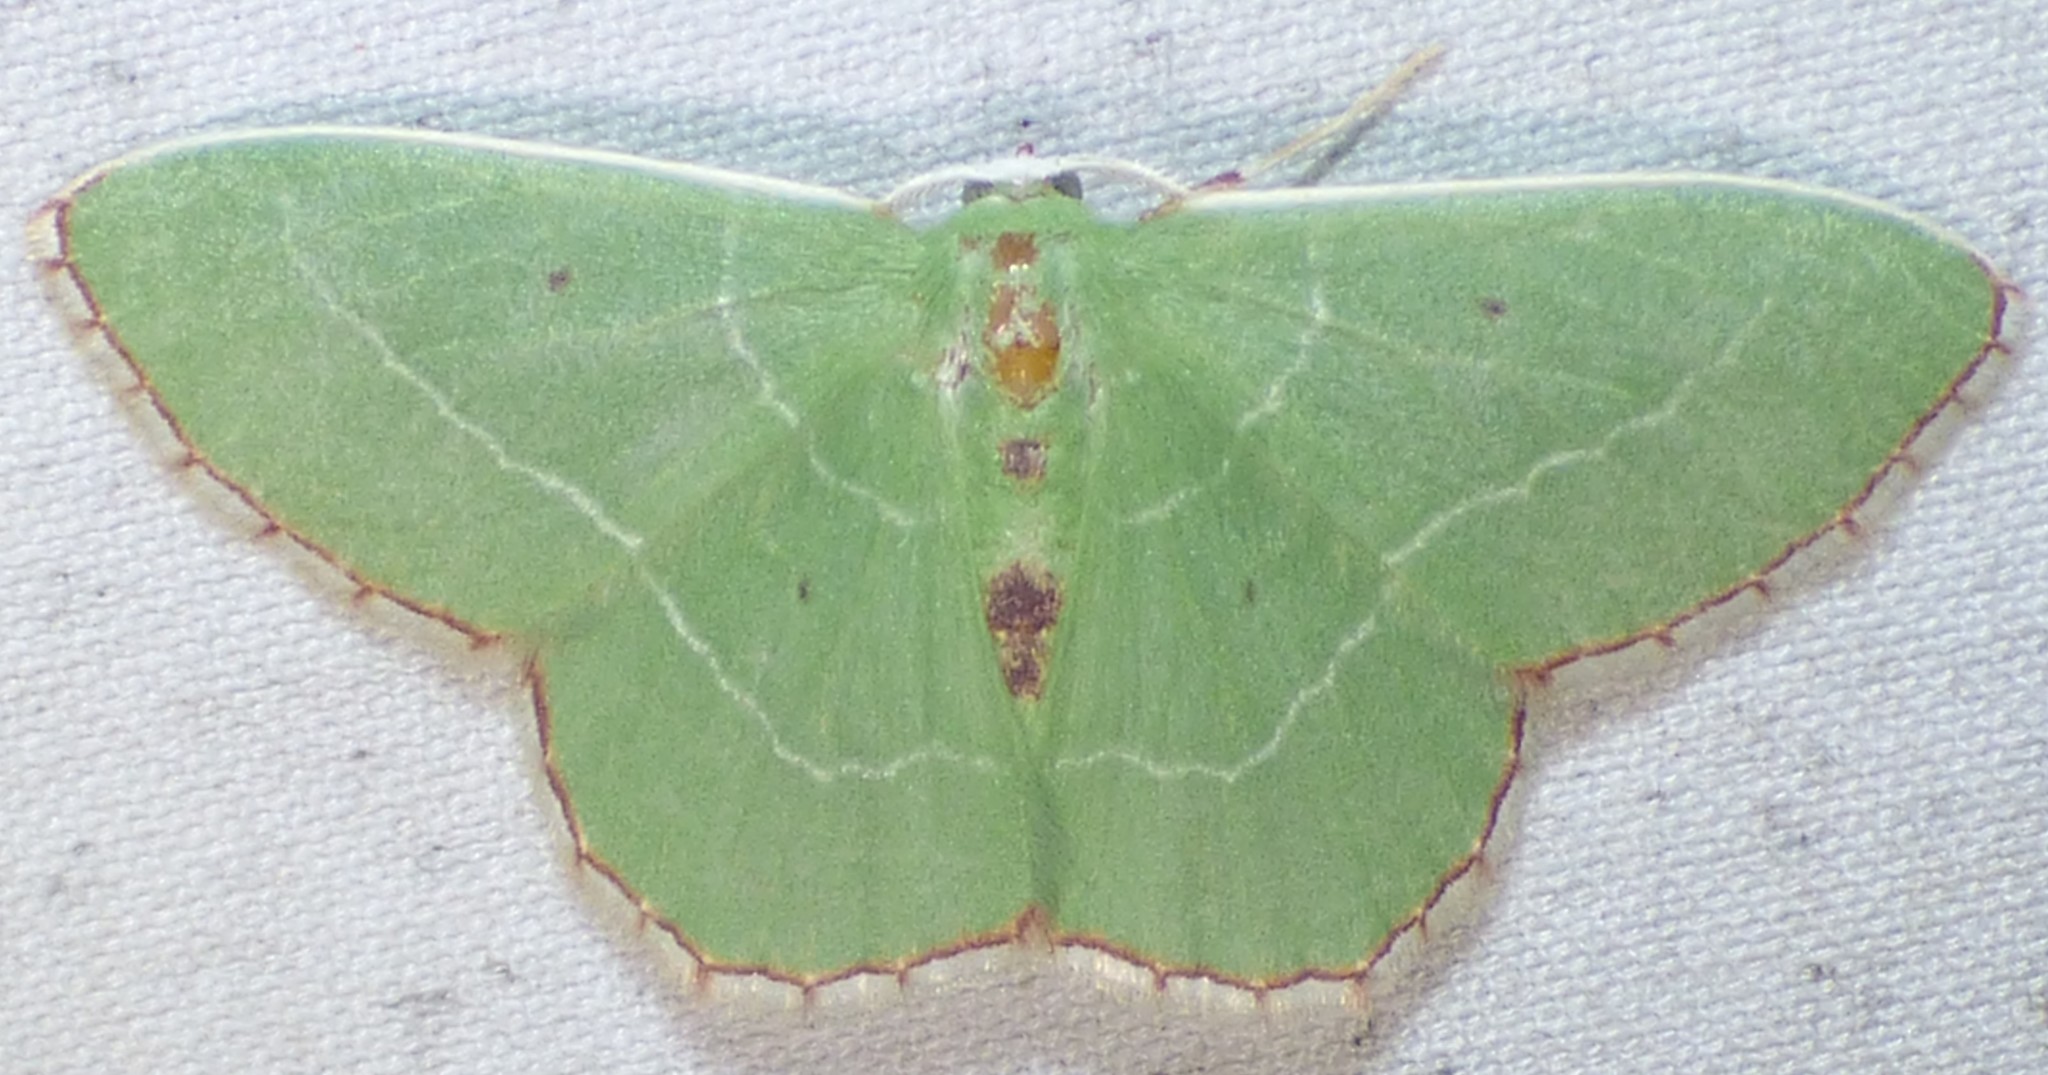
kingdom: Animalia
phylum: Arthropoda
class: Insecta
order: Lepidoptera
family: Geometridae
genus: Nemoria
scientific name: Nemoria saturiba
